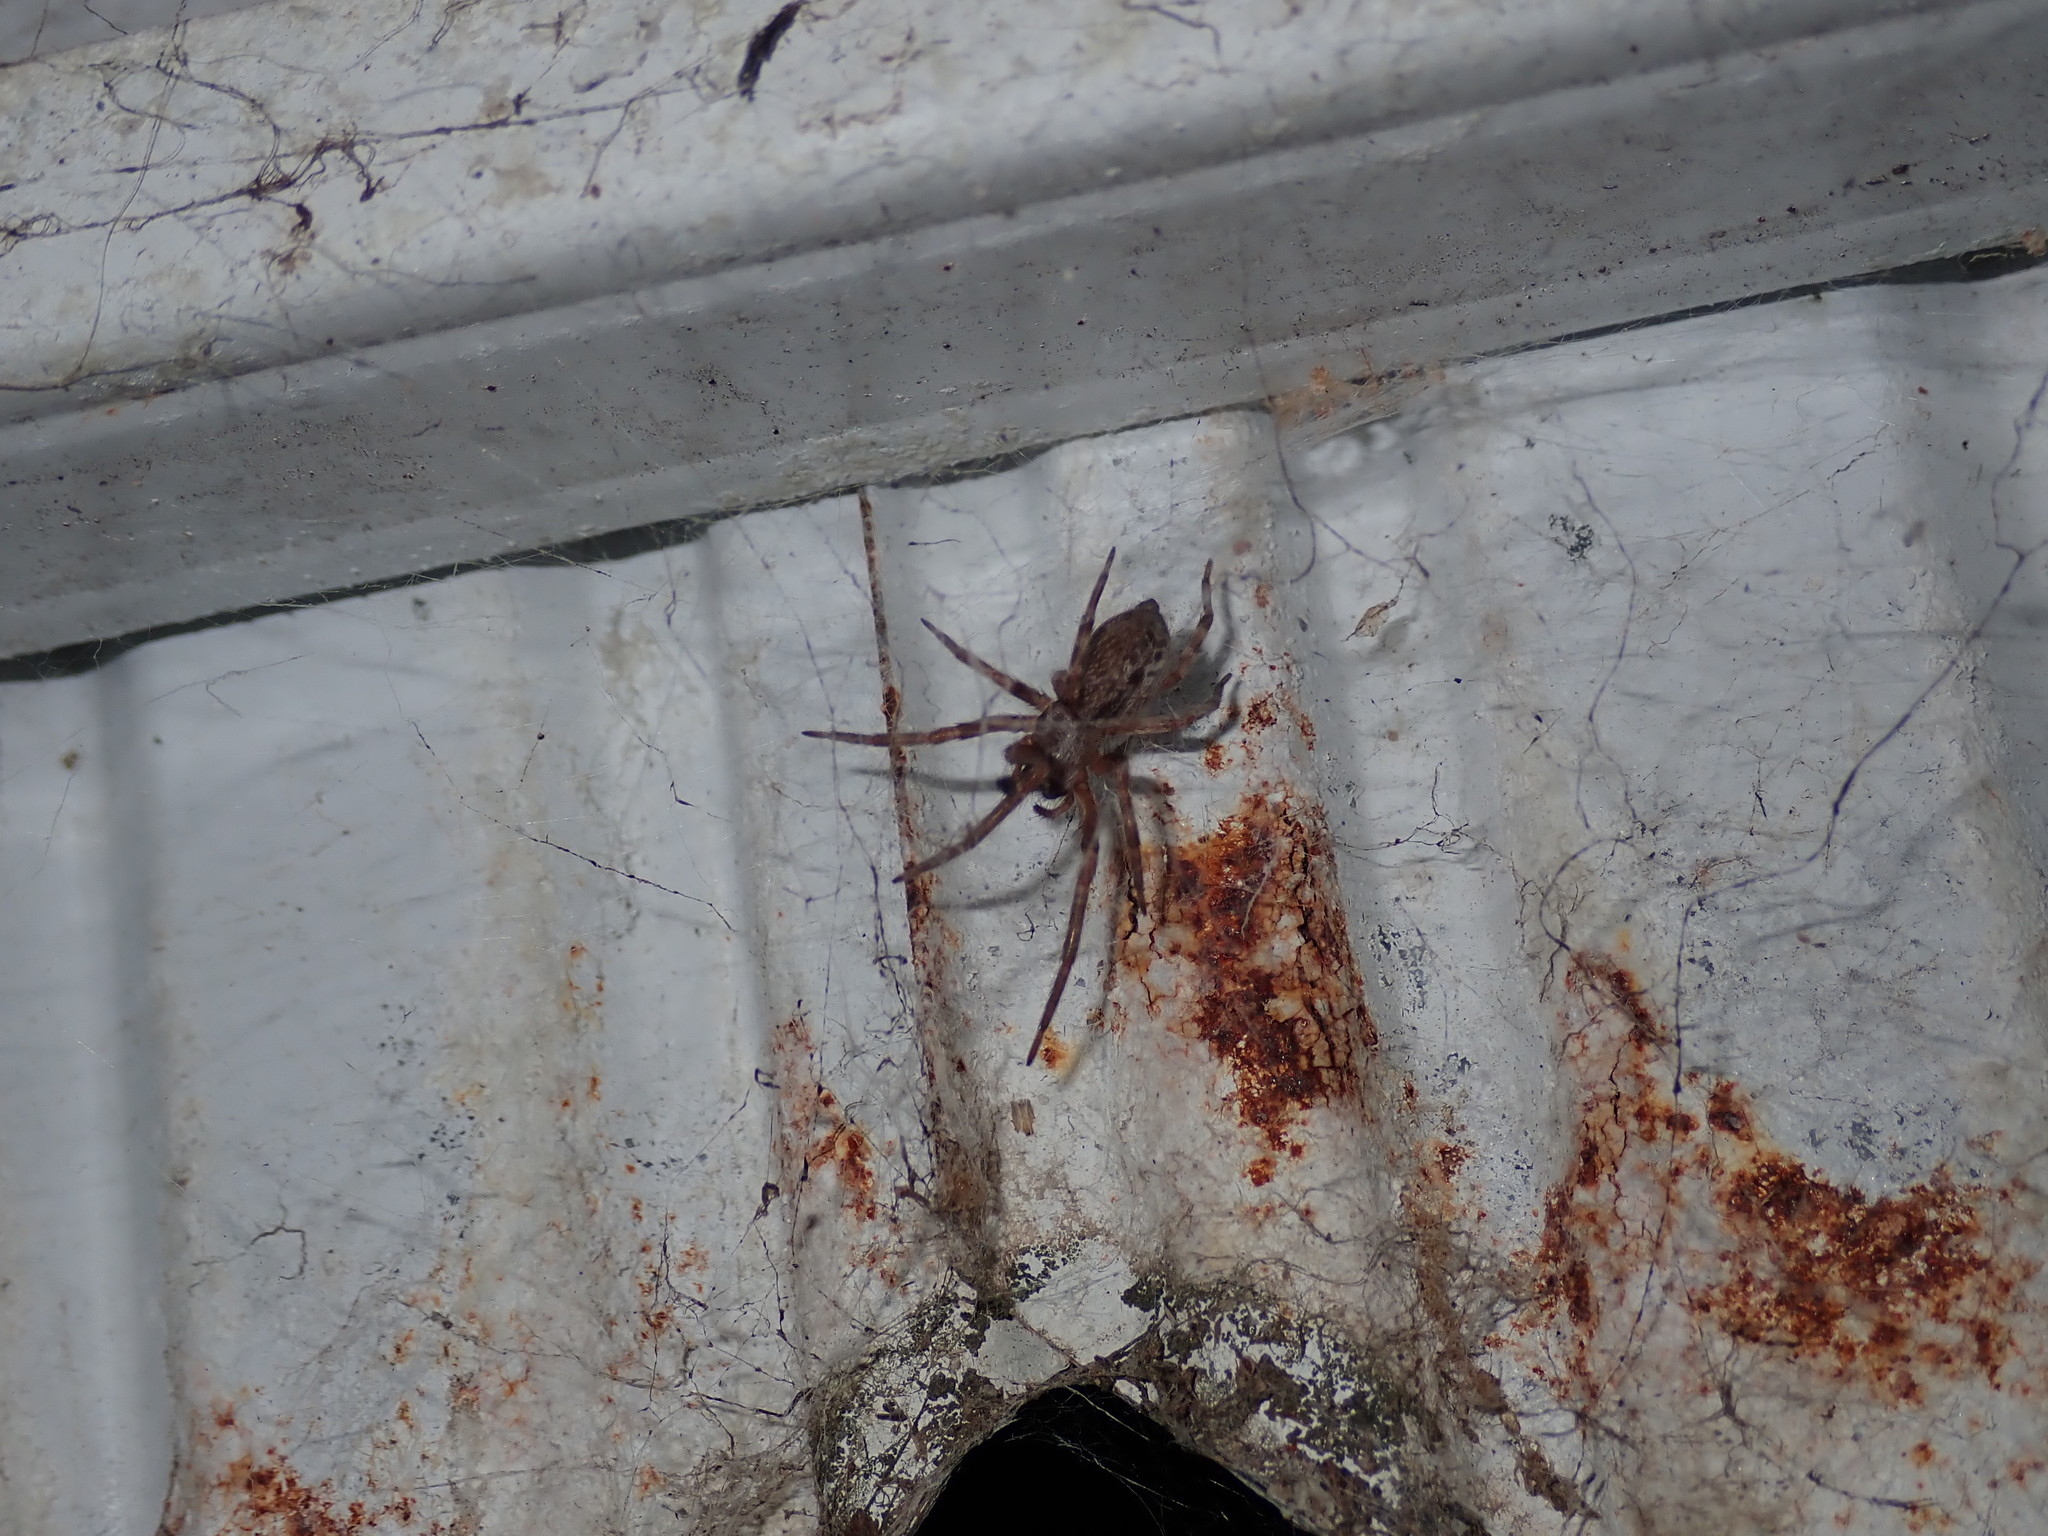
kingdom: Animalia
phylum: Arthropoda
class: Arachnida
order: Araneae
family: Desidae
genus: Badumna
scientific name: Badumna longinqua
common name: Gray house spider
